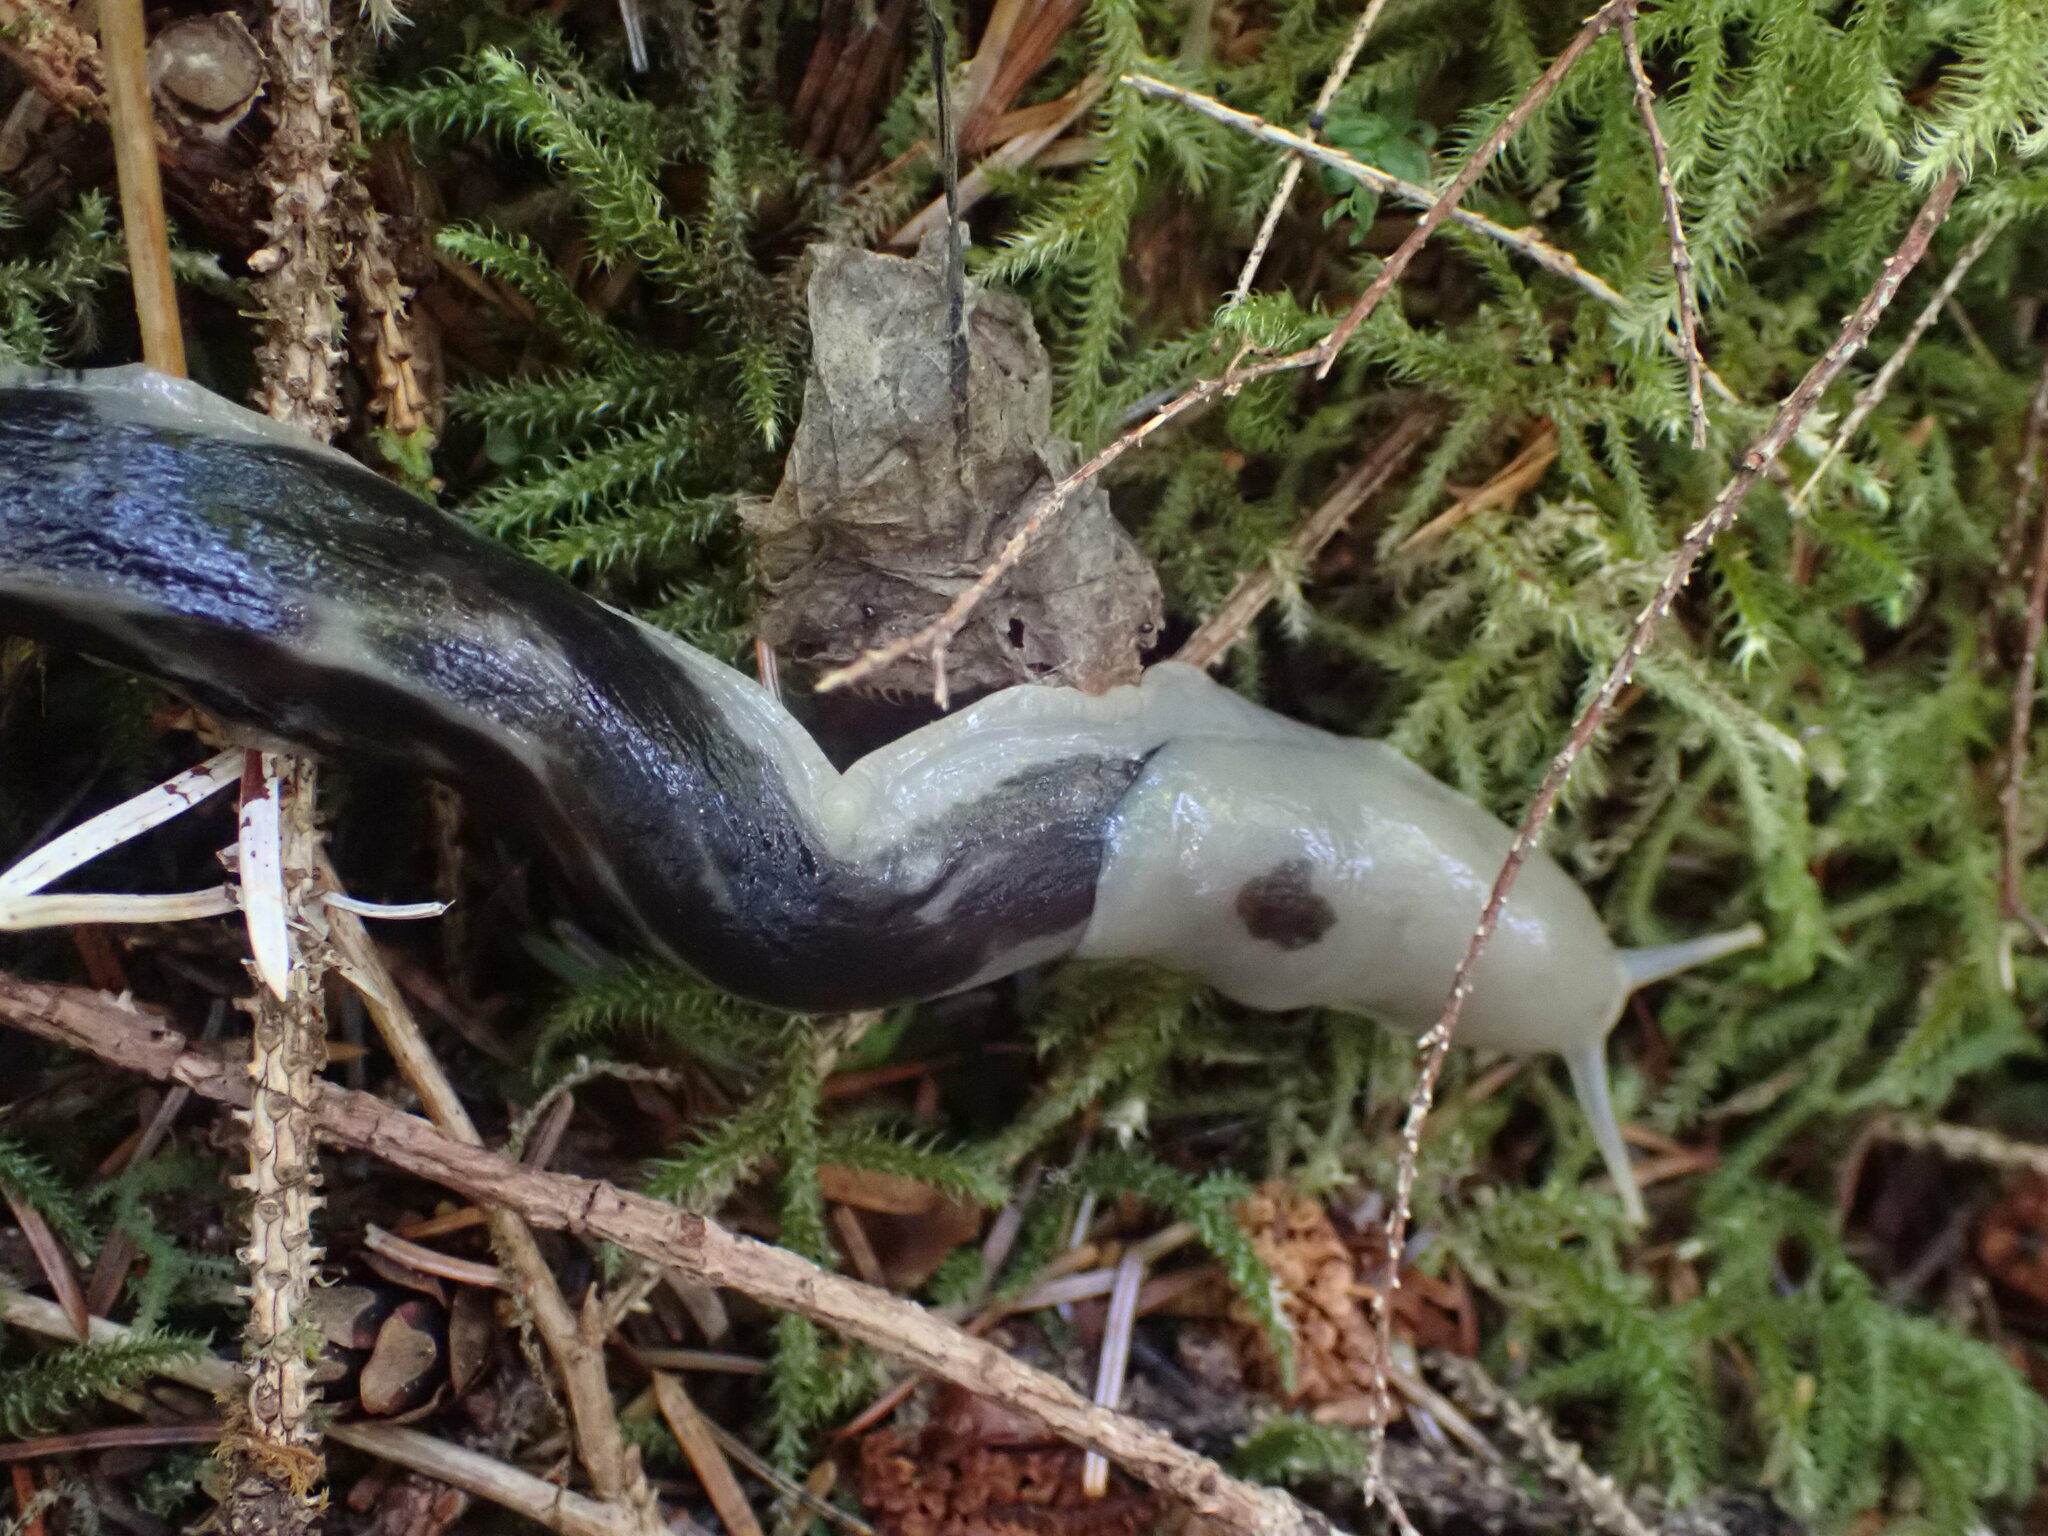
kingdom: Animalia
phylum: Mollusca
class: Gastropoda
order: Stylommatophora
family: Ariolimacidae
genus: Ariolimax
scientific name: Ariolimax columbianus
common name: Pacific banana slug
